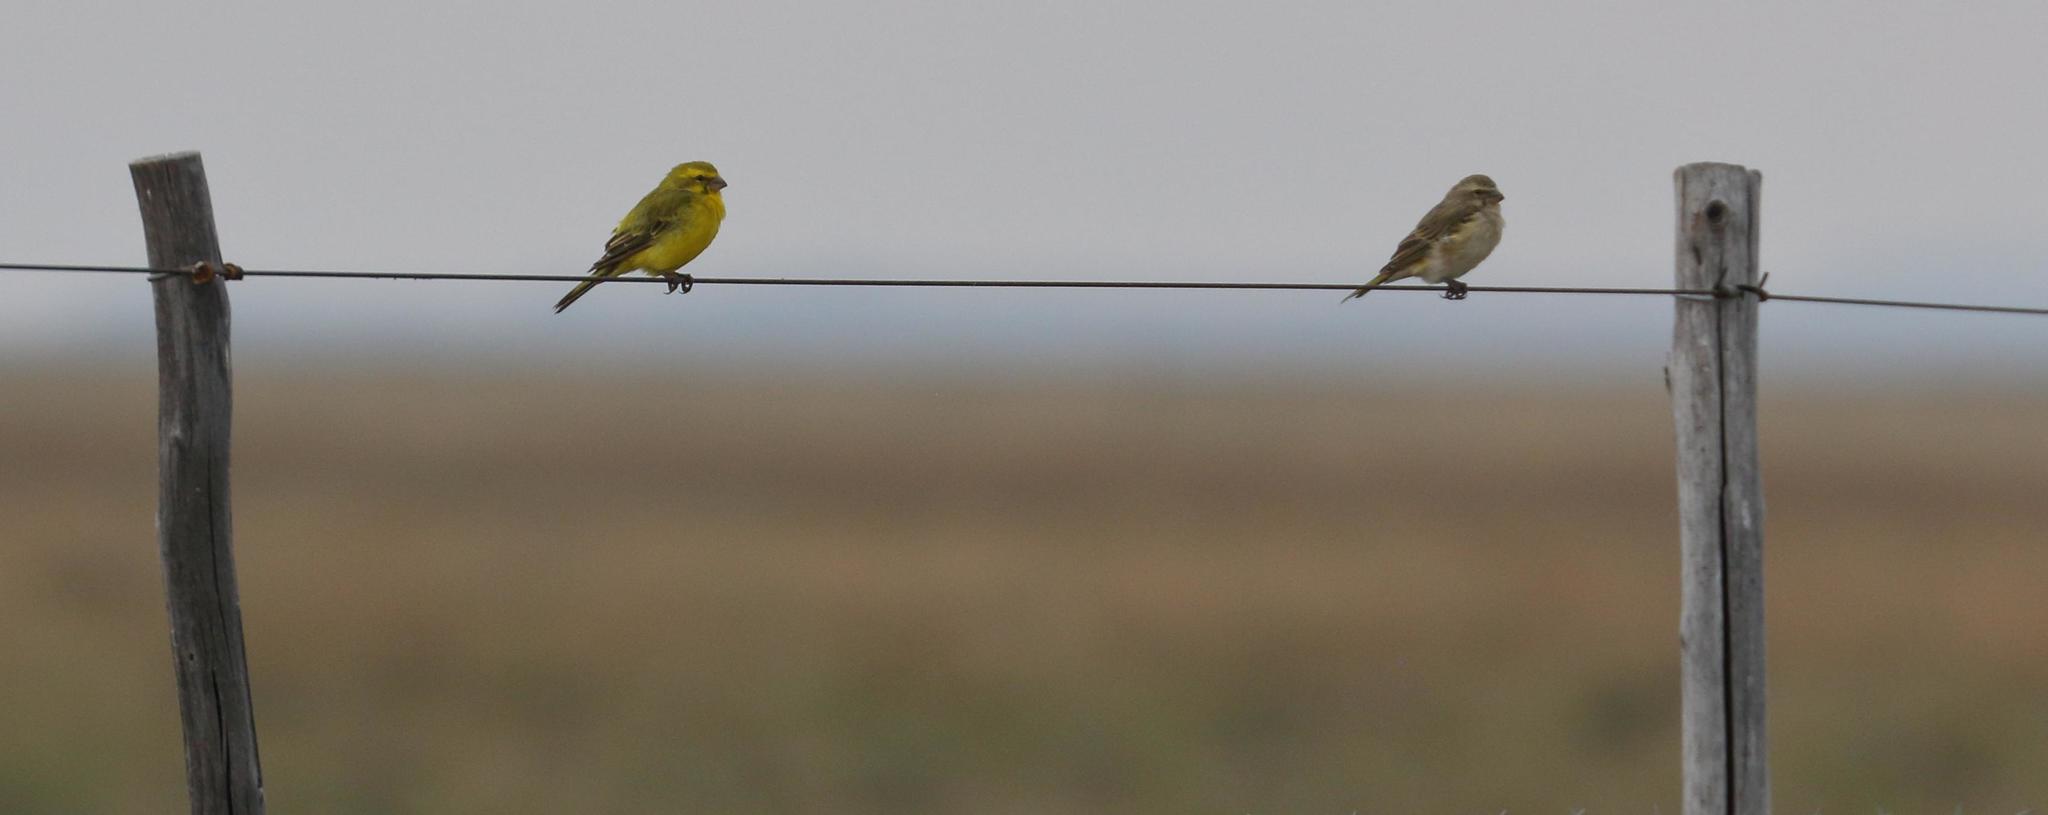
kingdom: Animalia
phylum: Chordata
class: Aves
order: Passeriformes
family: Fringillidae
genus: Crithagra
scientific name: Crithagra flaviventris
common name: Yellow canary
